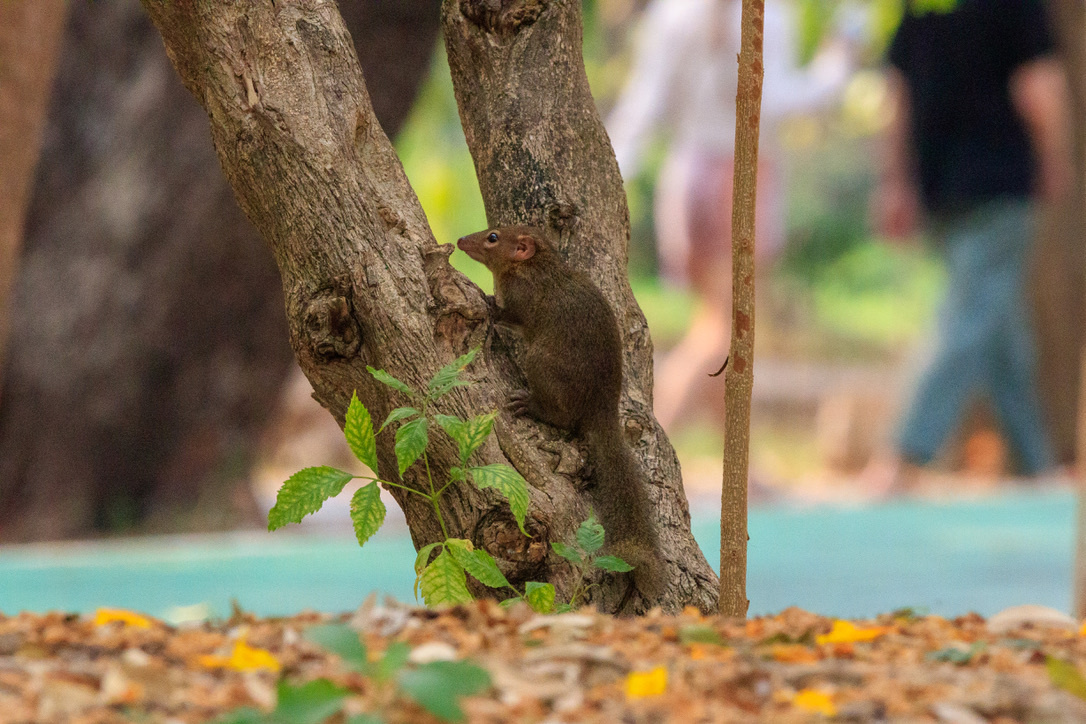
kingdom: Animalia
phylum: Chordata
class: Mammalia
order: Scandentia
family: Tupaiidae
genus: Tupaia
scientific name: Tupaia belangeri
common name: Northern treeshrew
